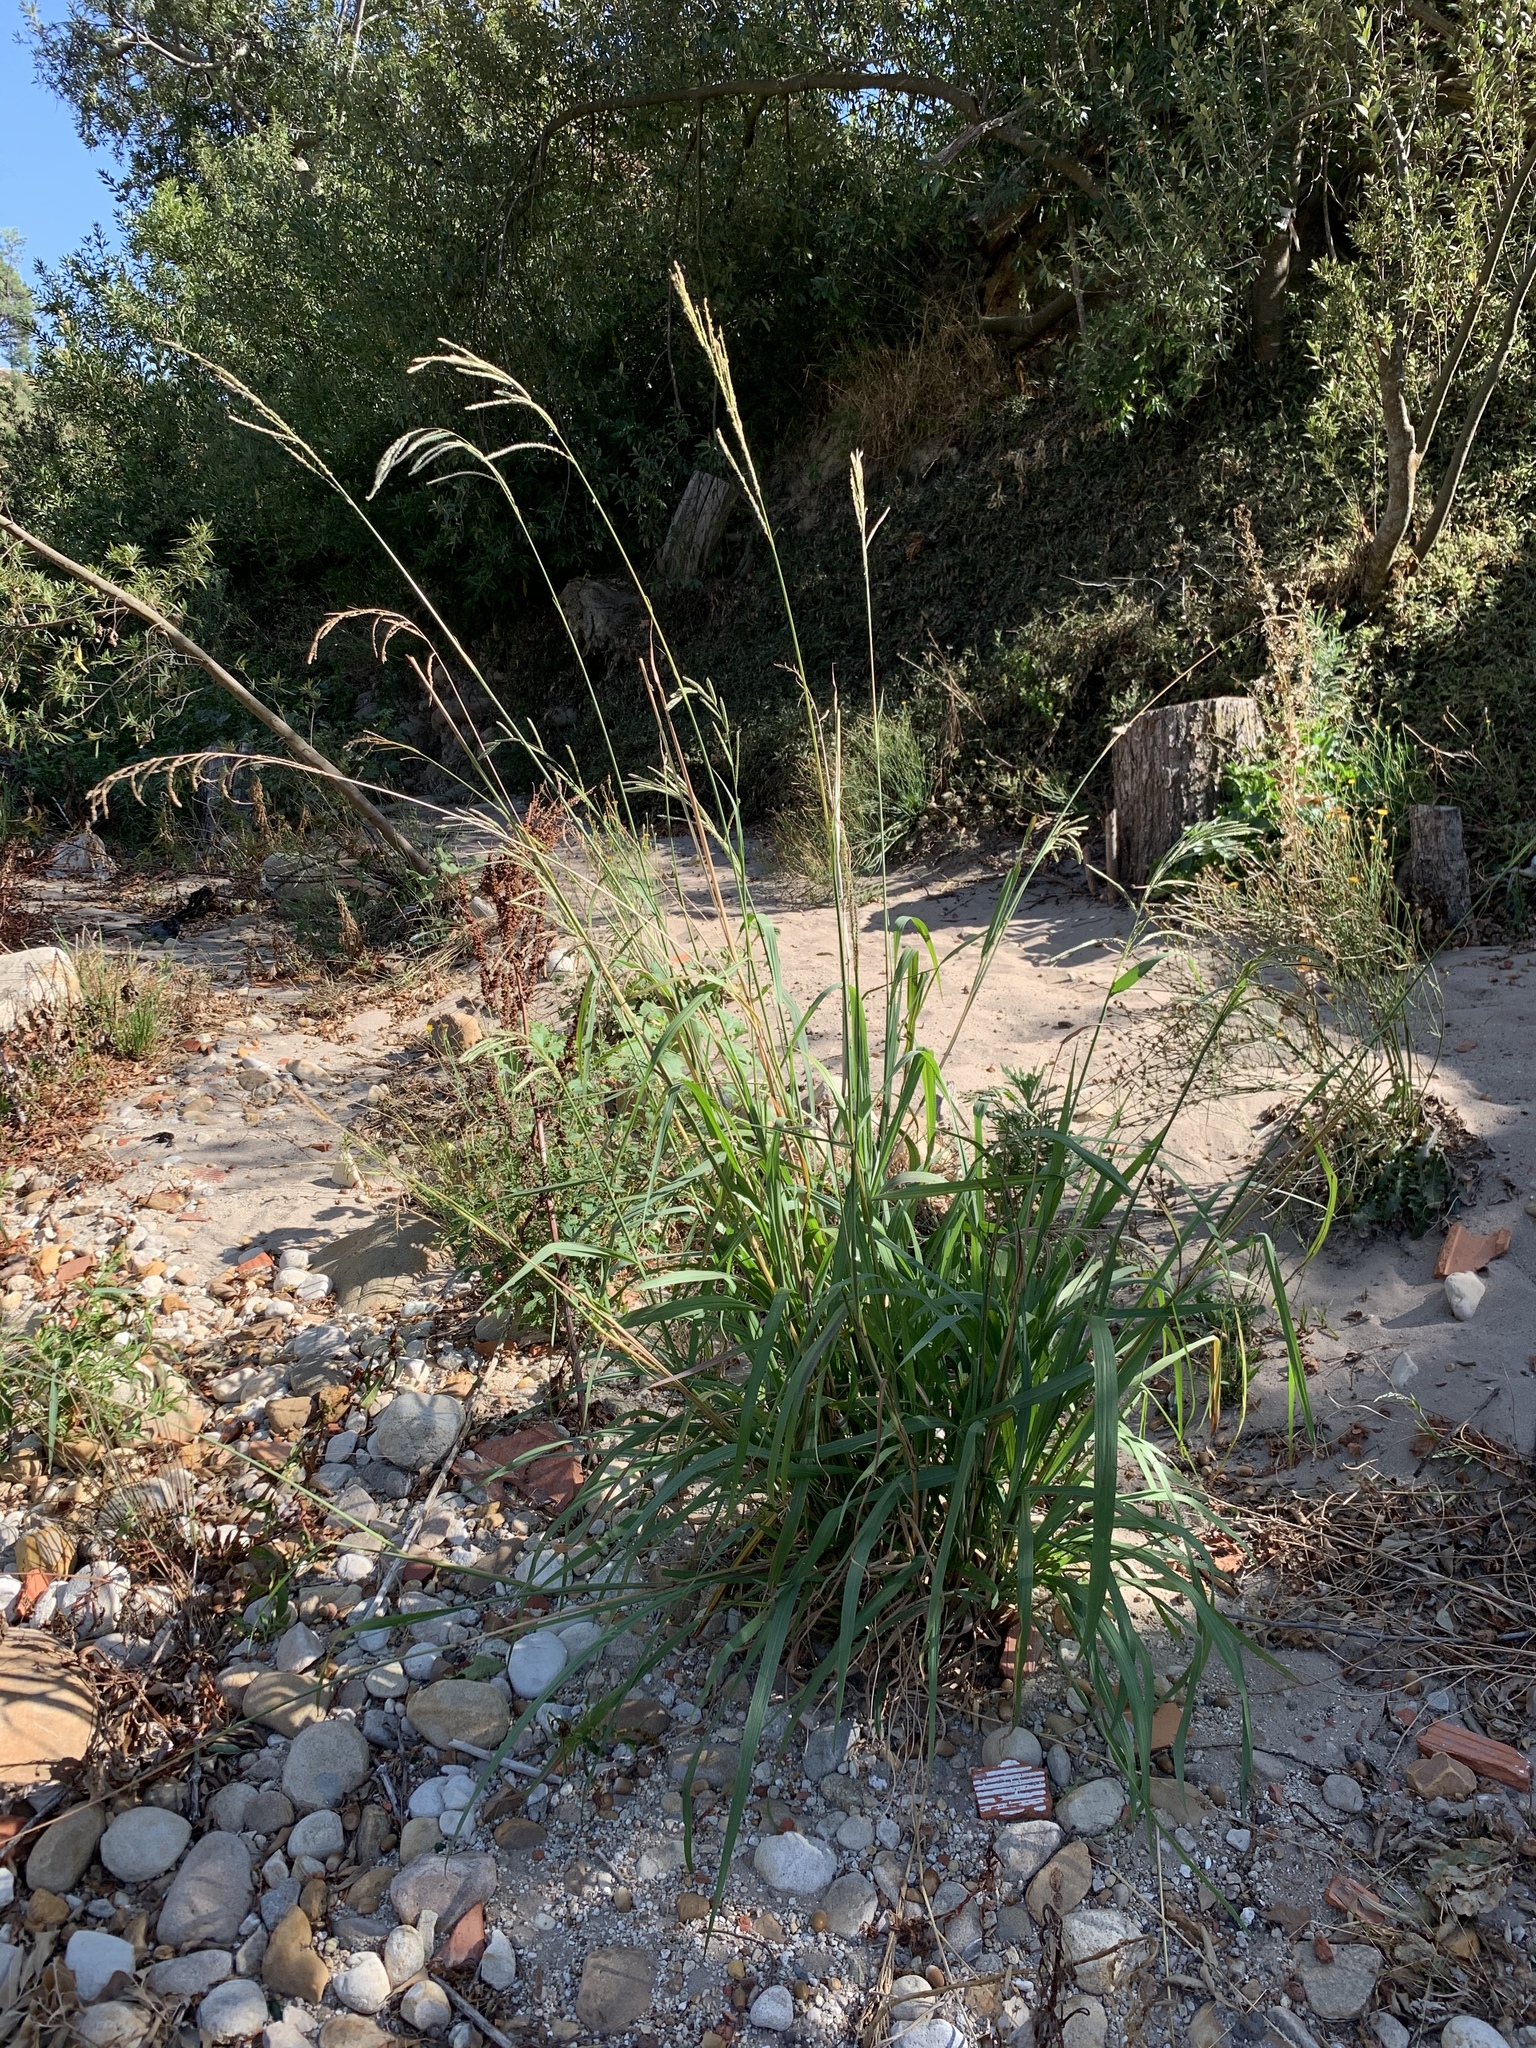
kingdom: Plantae
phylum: Tracheophyta
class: Liliopsida
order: Poales
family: Poaceae
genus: Paspalum
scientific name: Paspalum urvillei
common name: Vasey's grass
